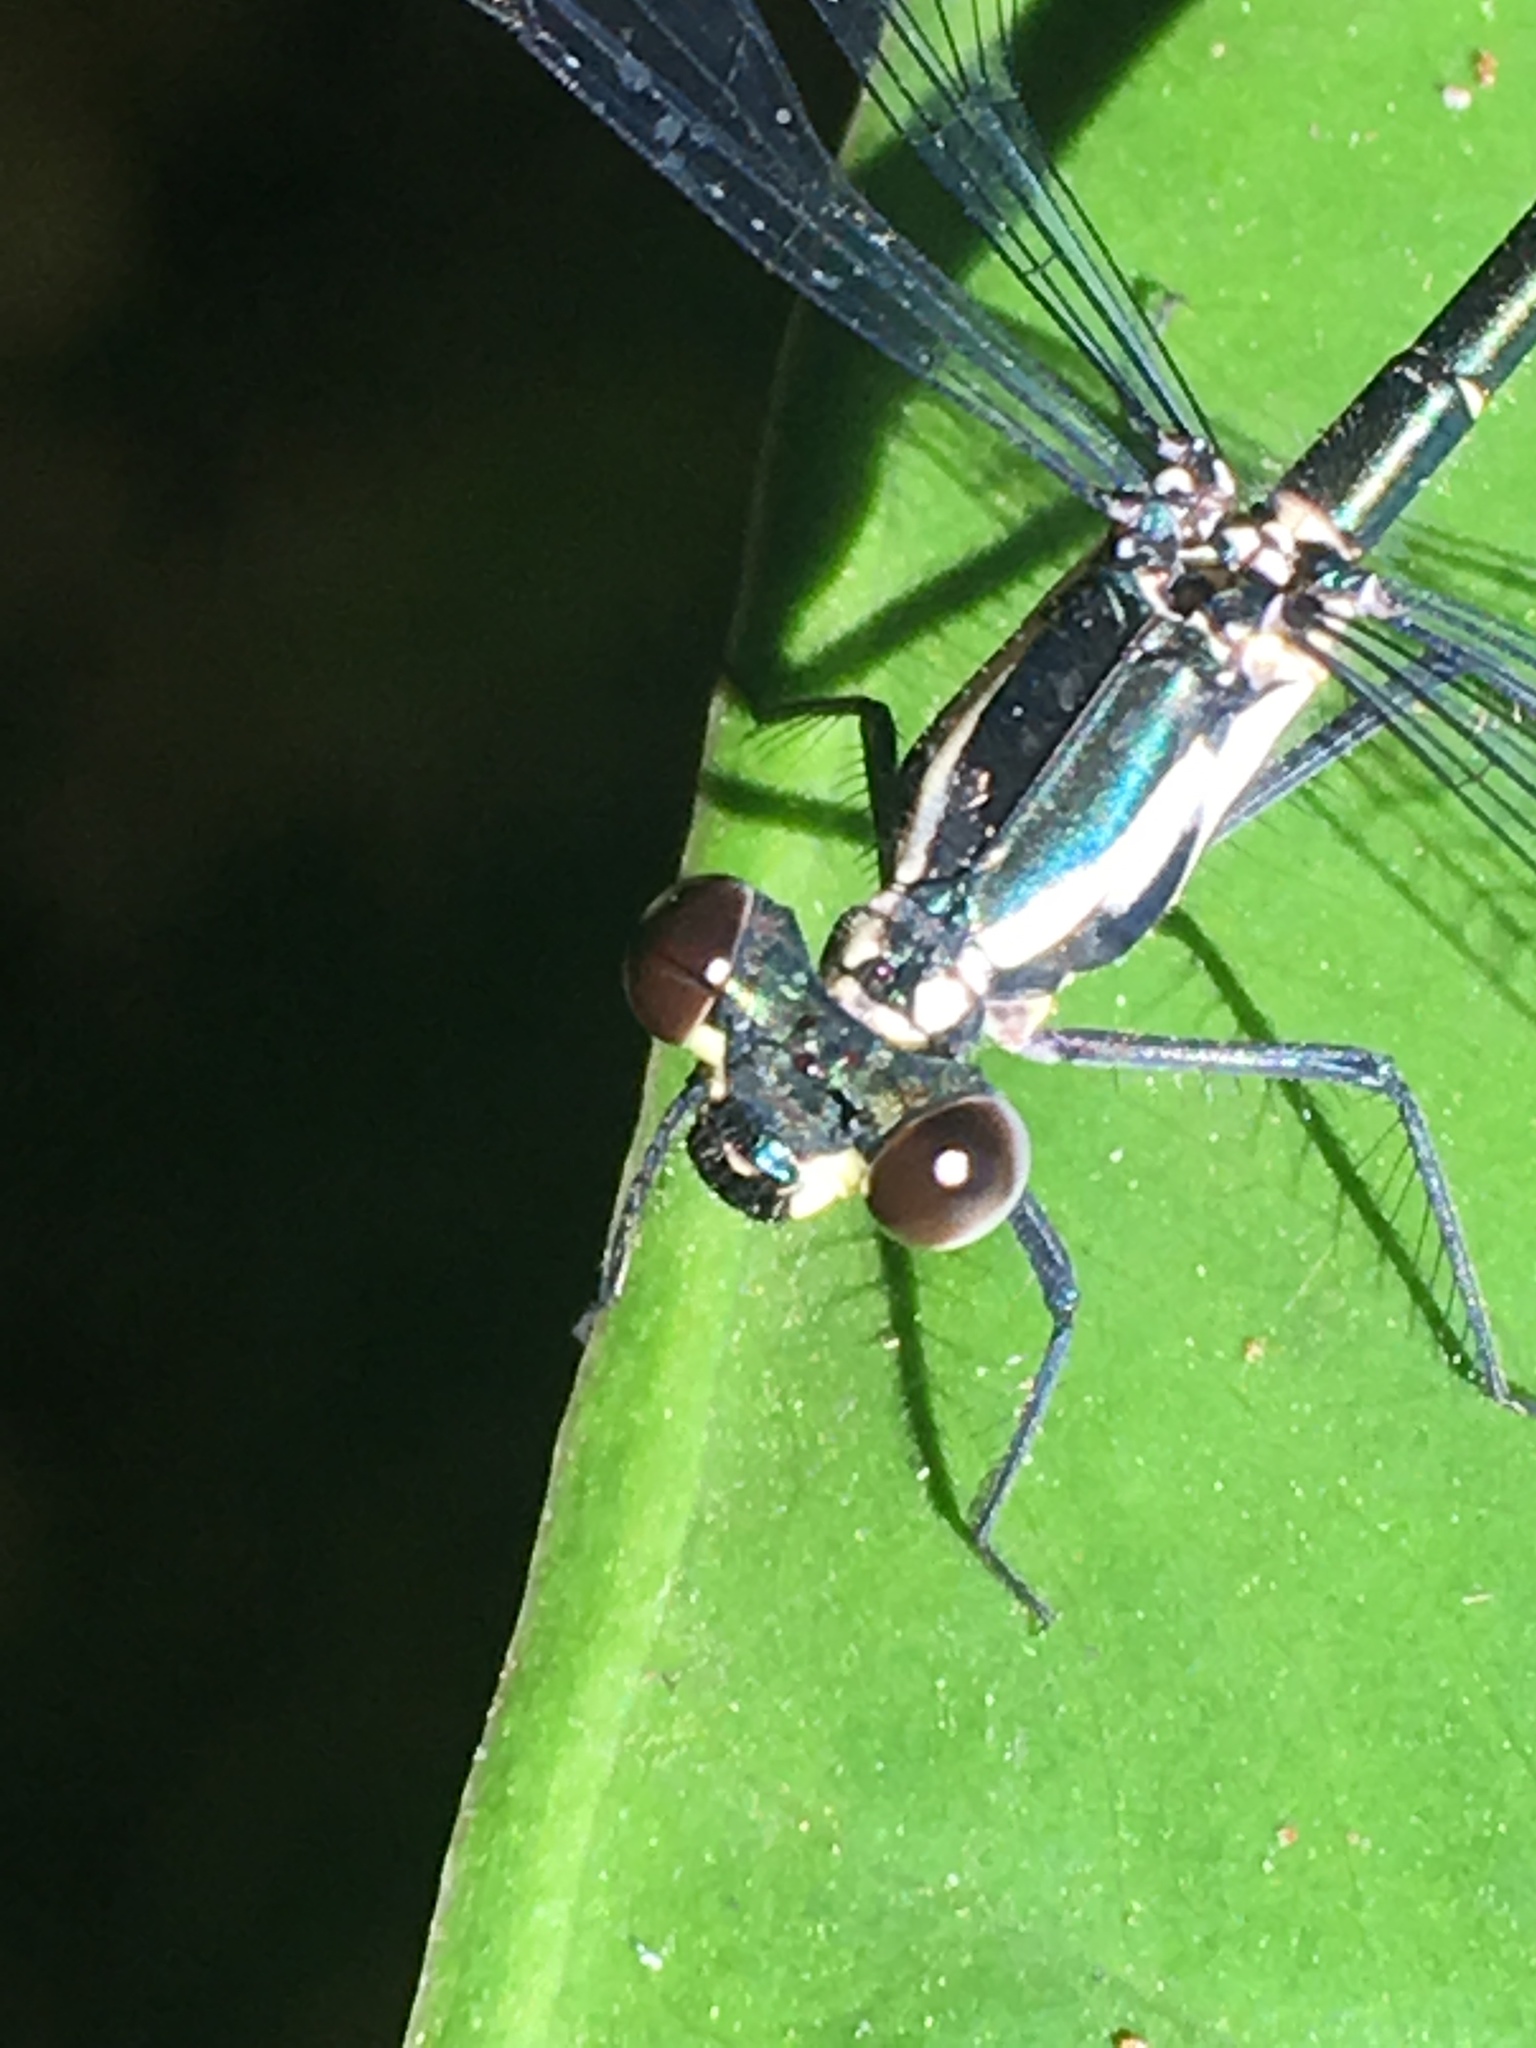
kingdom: Animalia
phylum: Arthropoda
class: Insecta
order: Odonata
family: Argiolestidae
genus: Austroargiolestes
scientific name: Austroargiolestes icteromelas
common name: Common flatwing
